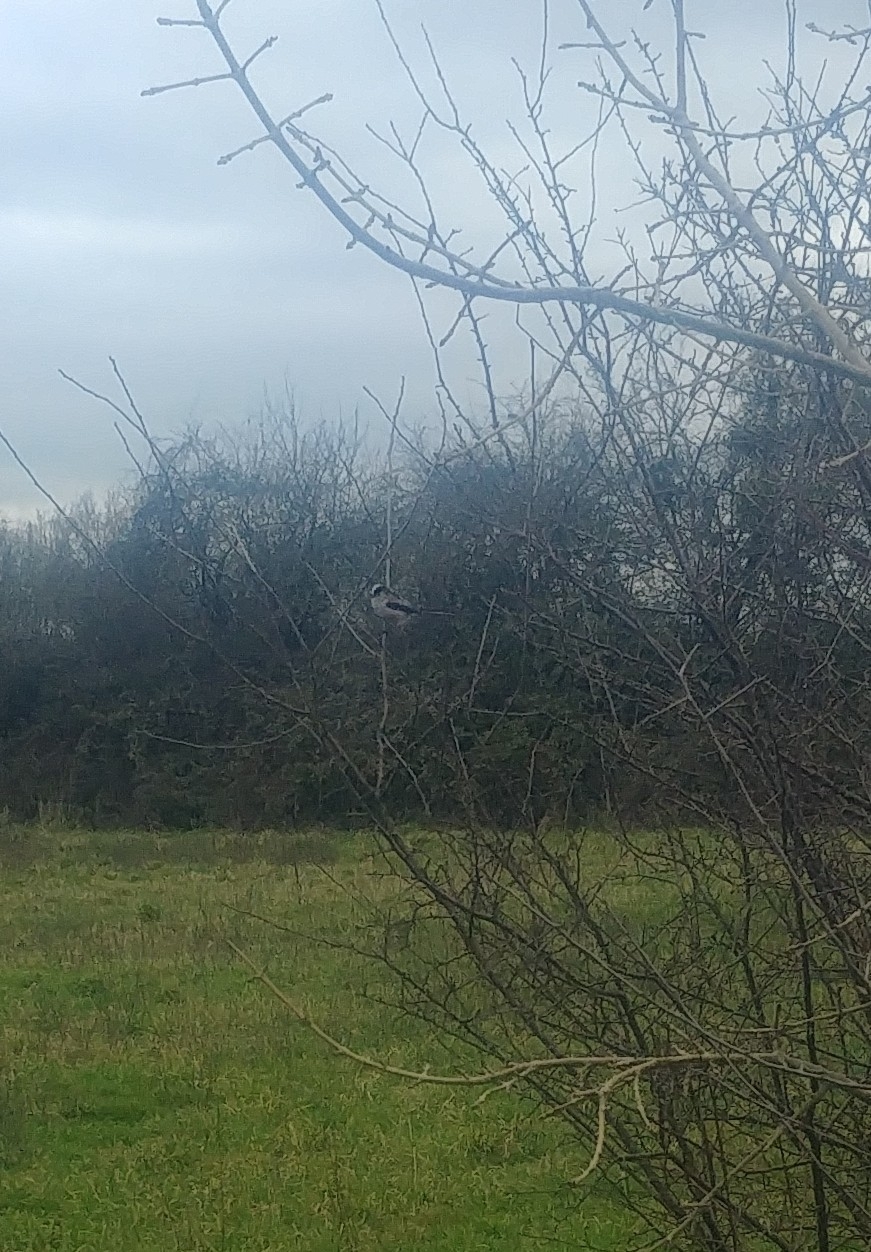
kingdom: Animalia
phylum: Chordata
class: Aves
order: Passeriformes
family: Aegithalidae
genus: Aegithalos
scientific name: Aegithalos caudatus
